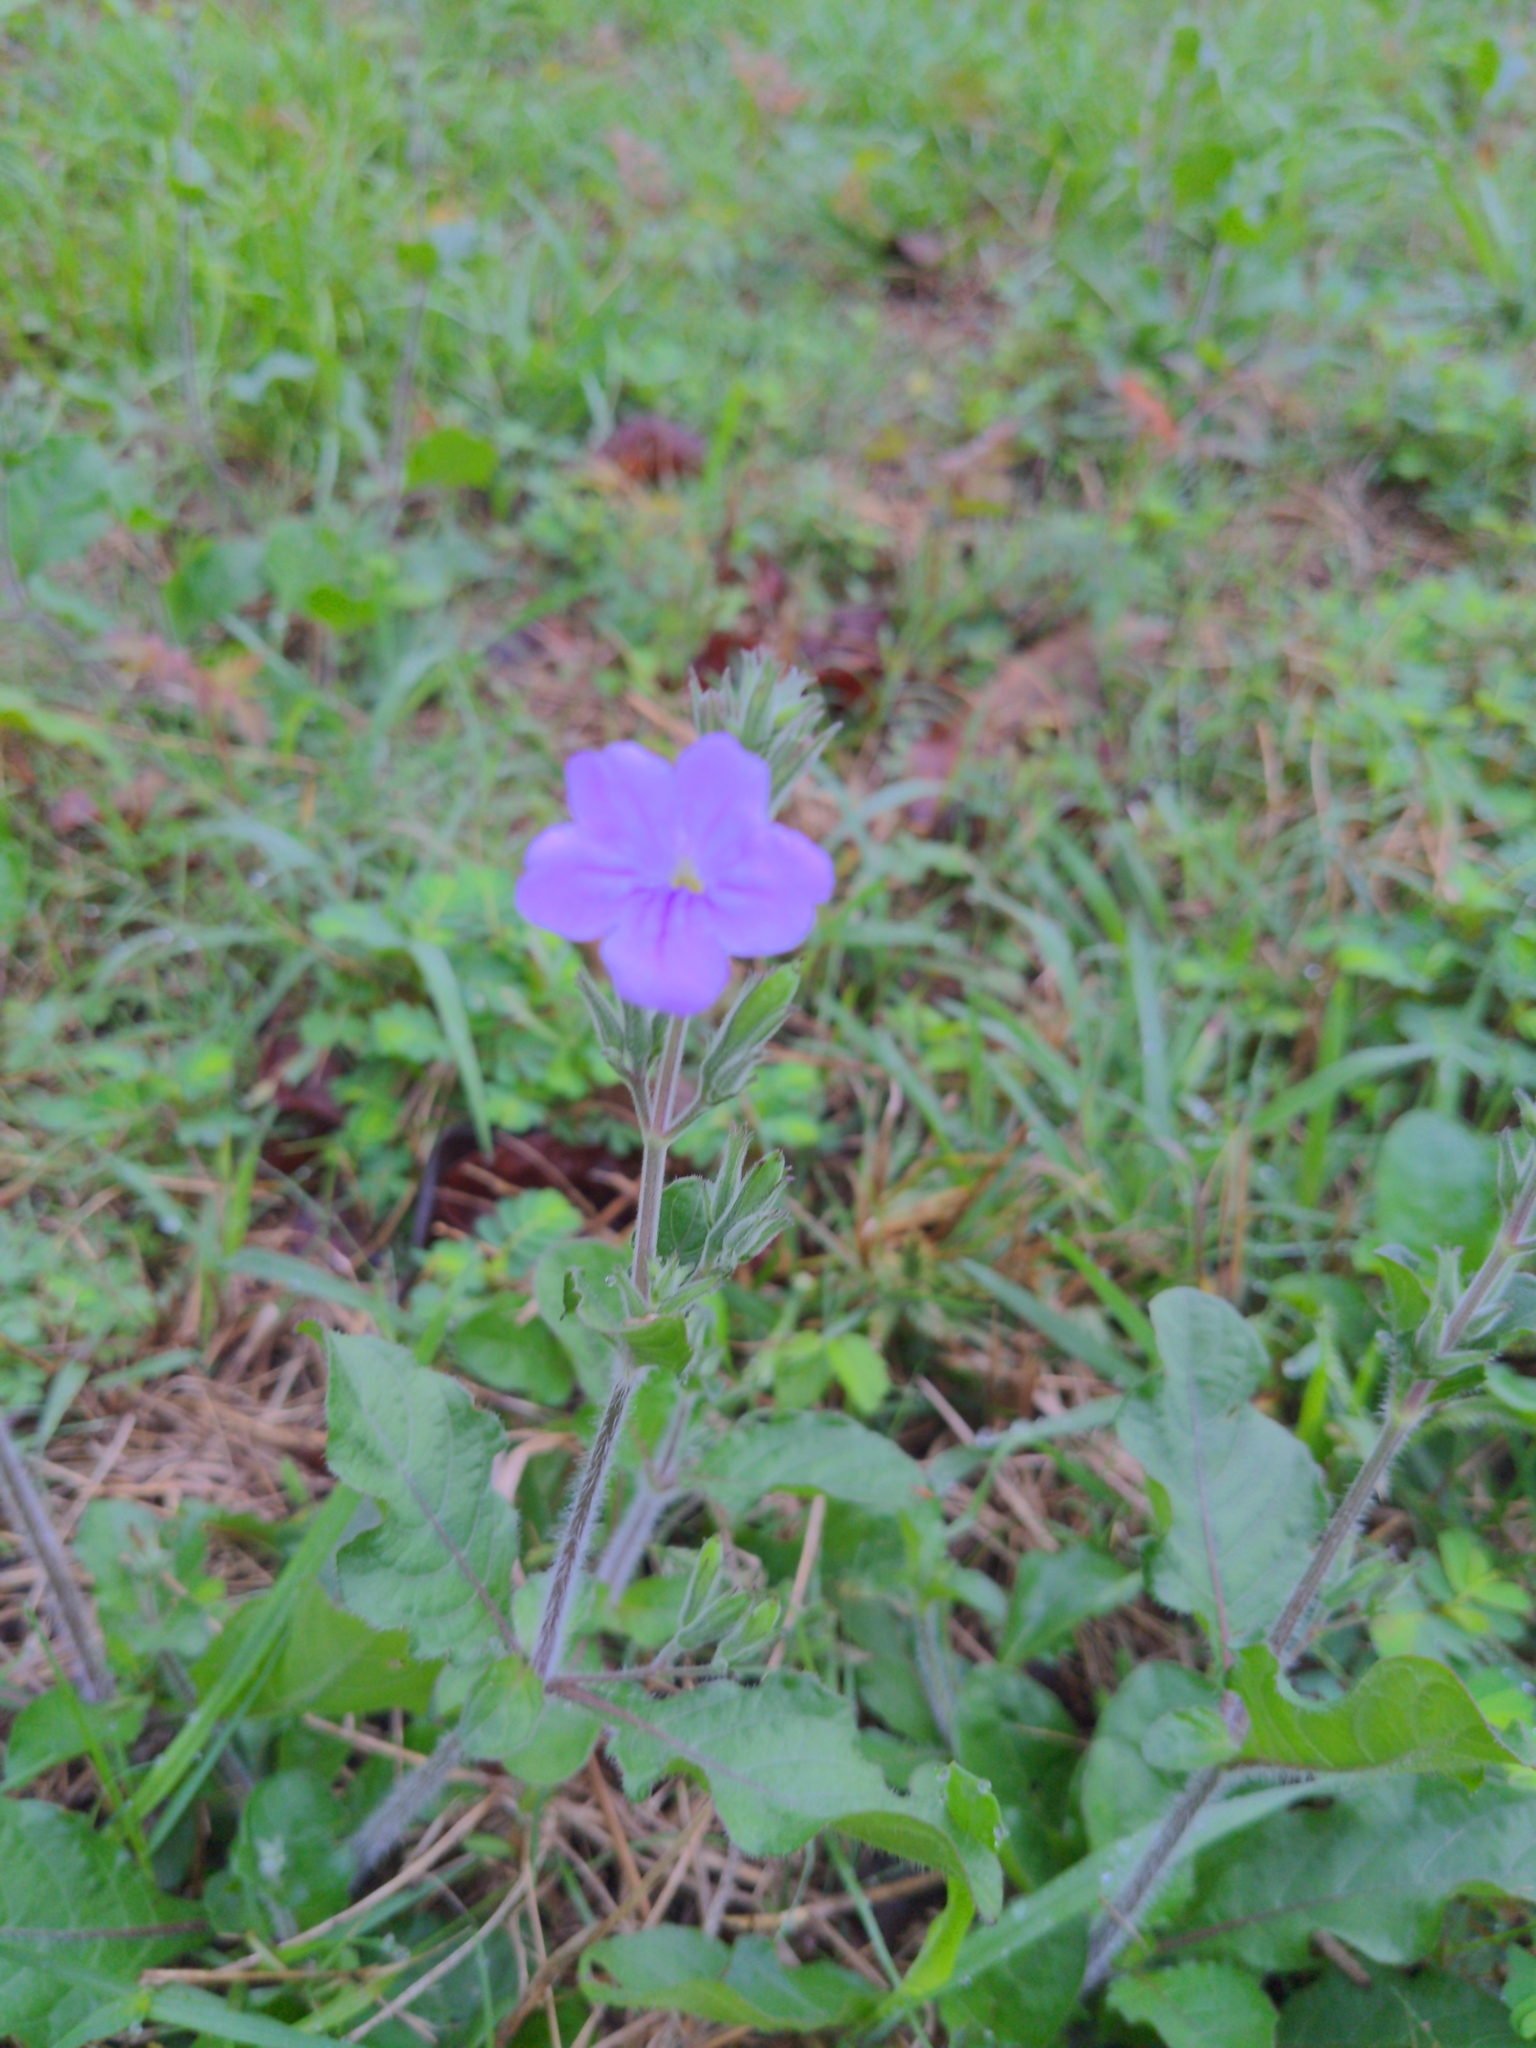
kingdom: Plantae
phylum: Tracheophyta
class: Magnoliopsida
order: Lamiales
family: Acanthaceae
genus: Ruellia
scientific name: Ruellia ciliatiflora
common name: Hairyflower wild petunia
